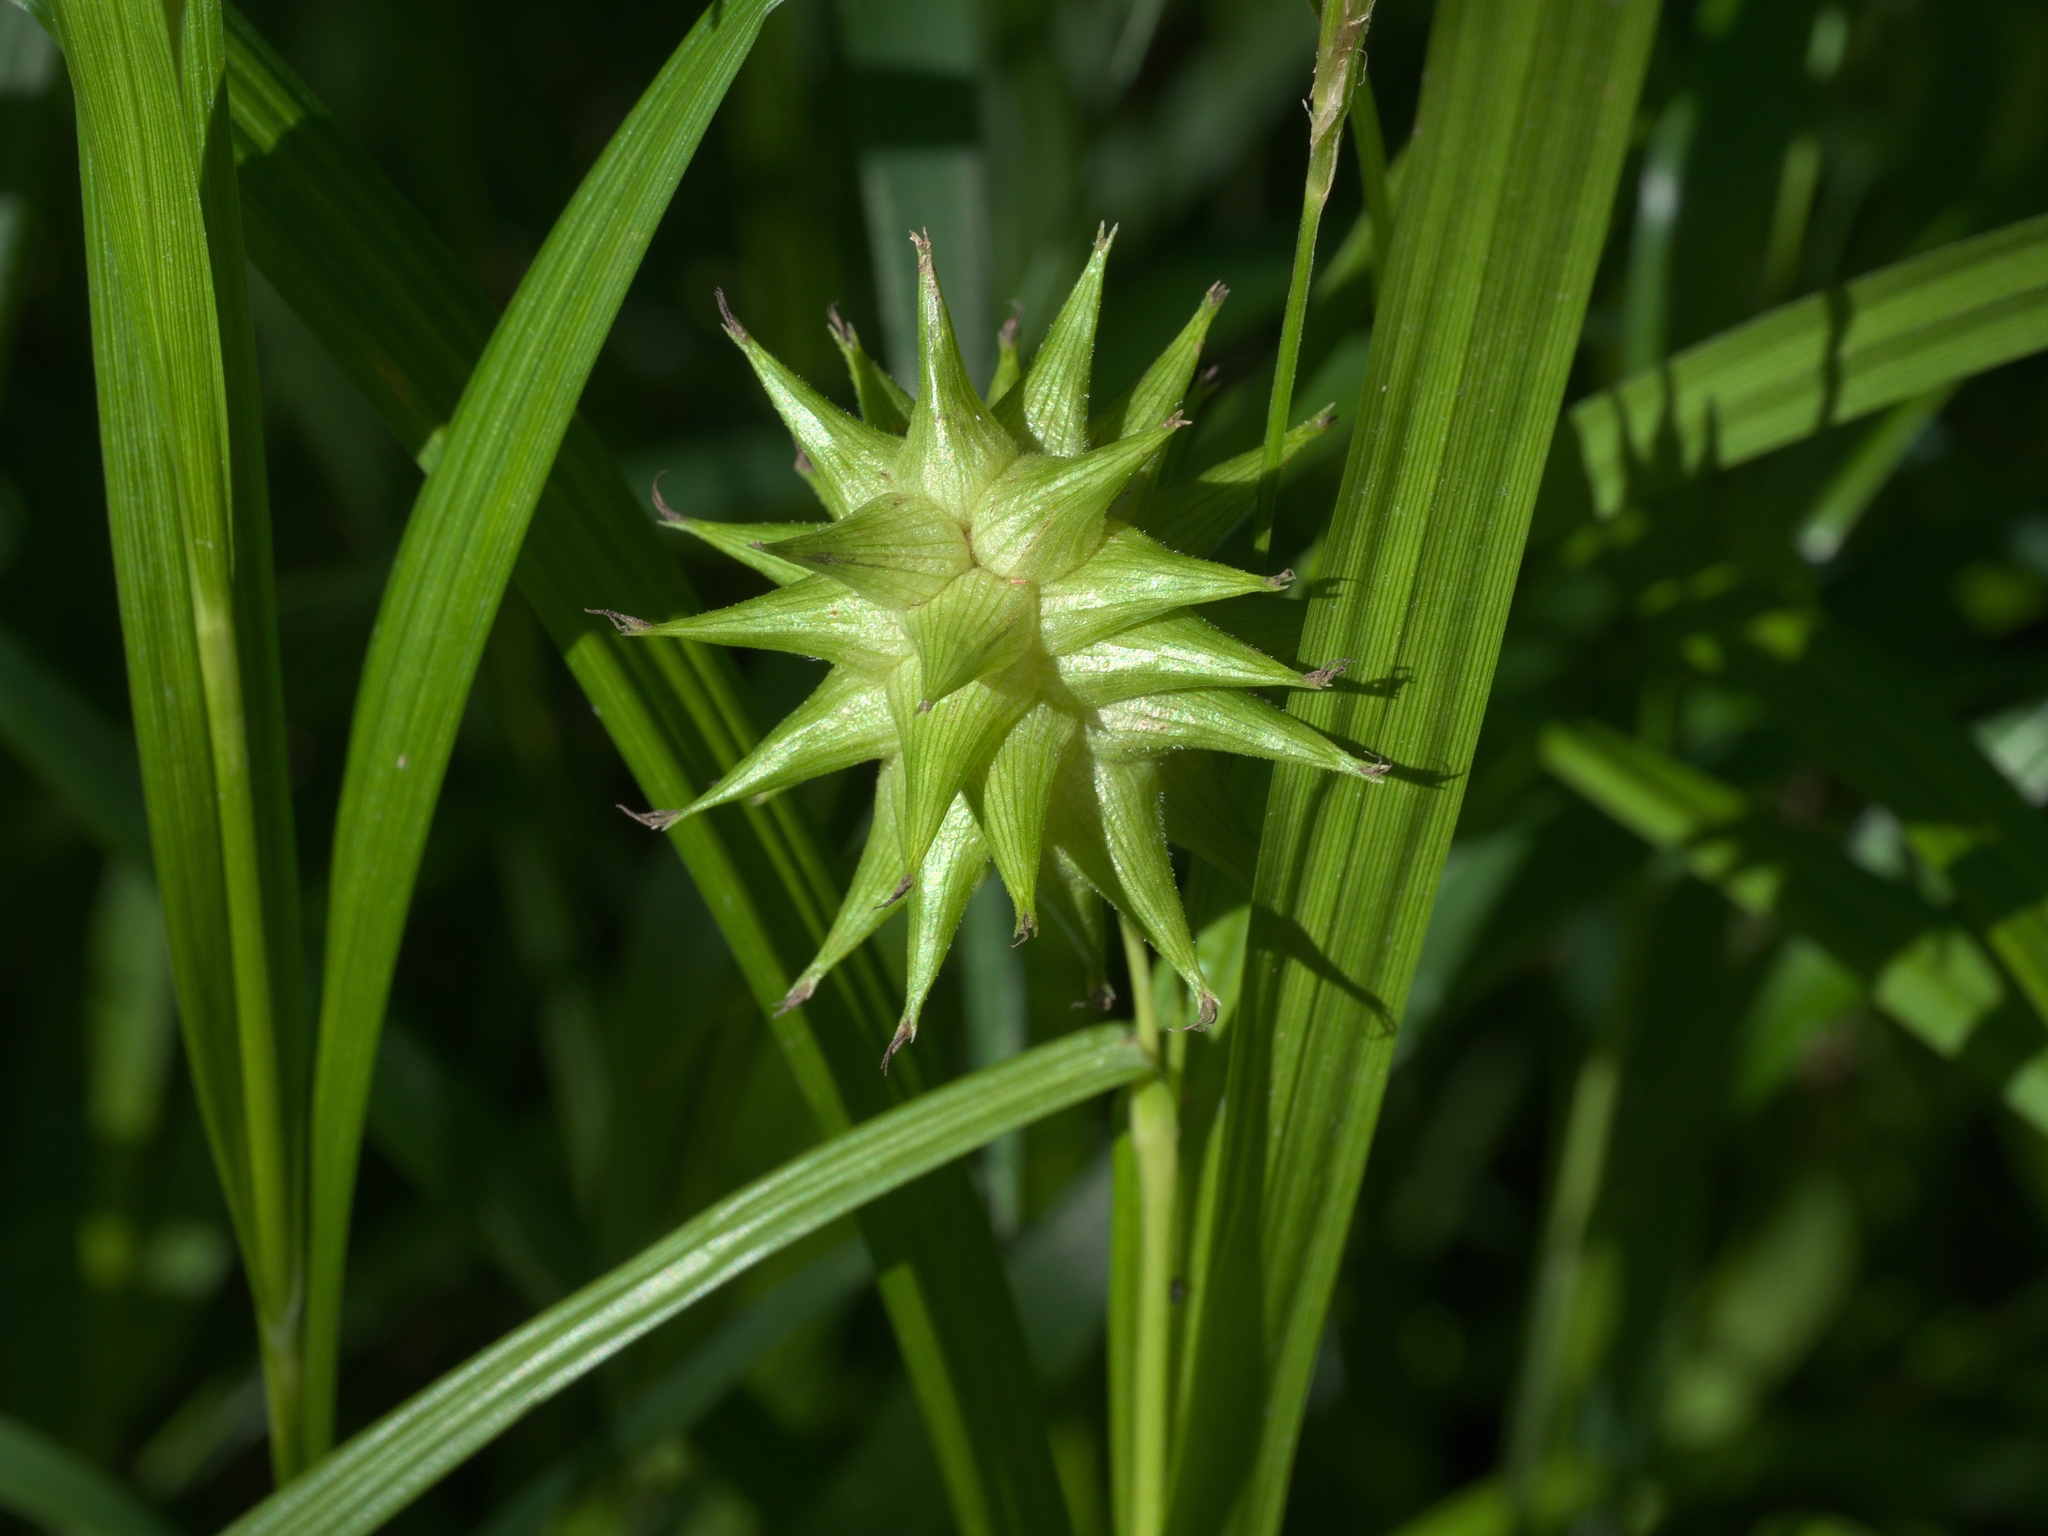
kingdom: Plantae
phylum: Tracheophyta
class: Liliopsida
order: Poales
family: Cyperaceae
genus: Carex
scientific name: Carex grayi
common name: Asa gray's sedge
